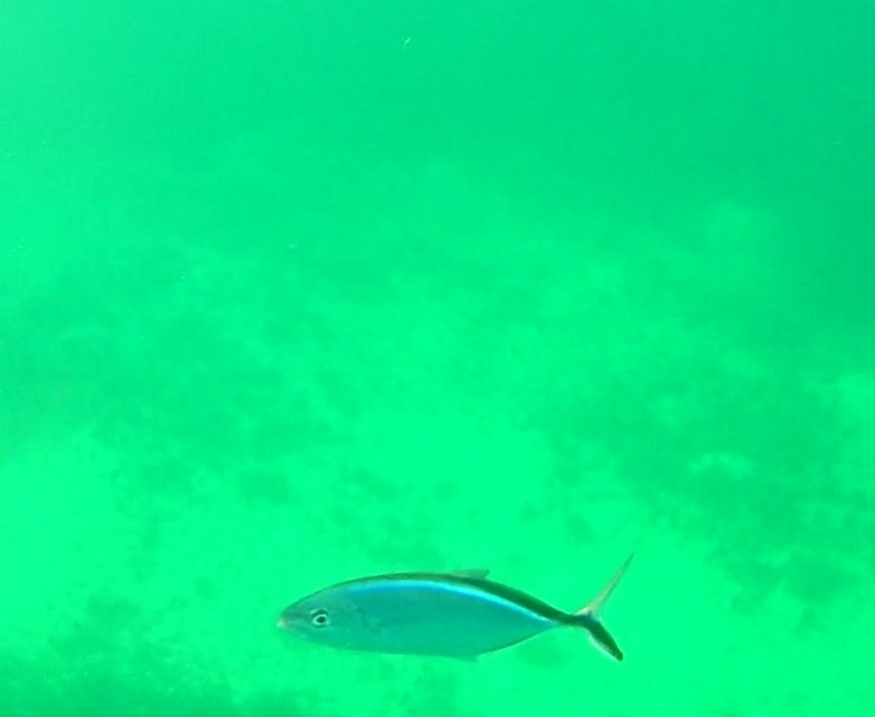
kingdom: Animalia
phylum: Chordata
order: Perciformes
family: Carangidae
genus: Caranx
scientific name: Caranx ruber
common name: Bar jack
